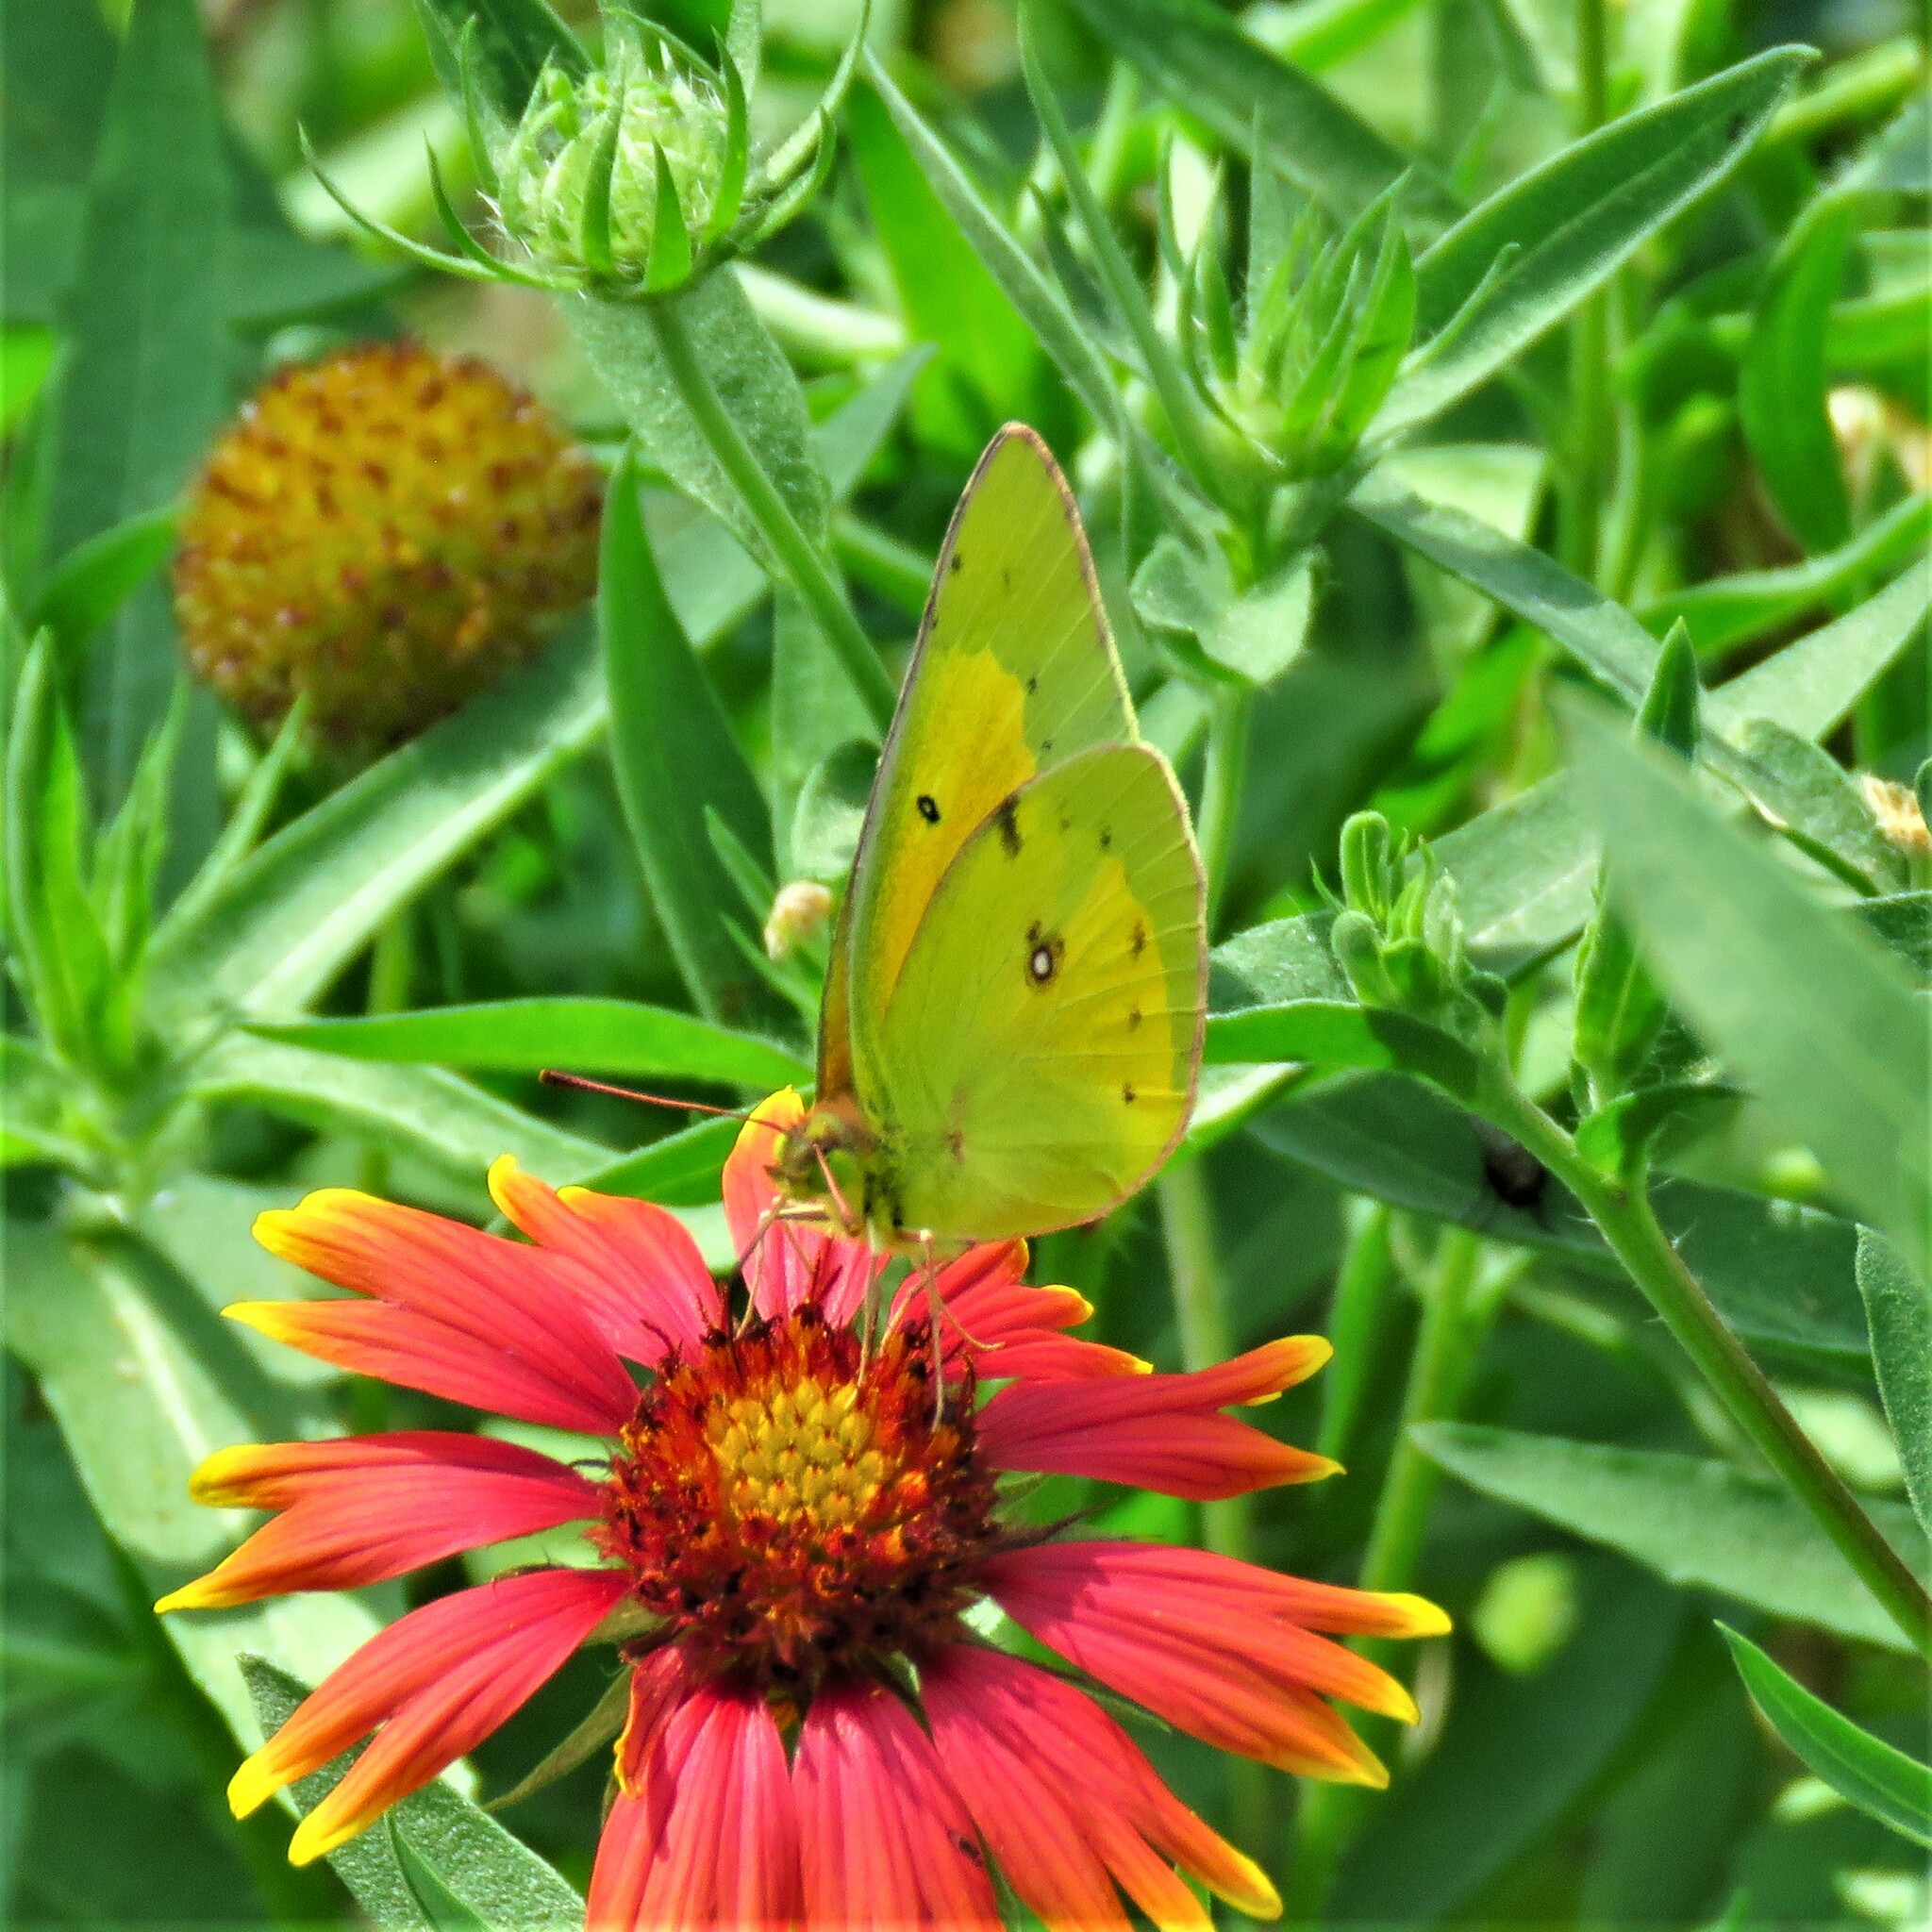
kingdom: Animalia
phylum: Arthropoda
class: Insecta
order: Lepidoptera
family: Pieridae
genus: Colias
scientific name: Colias eurytheme
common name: Alfalfa butterfly
